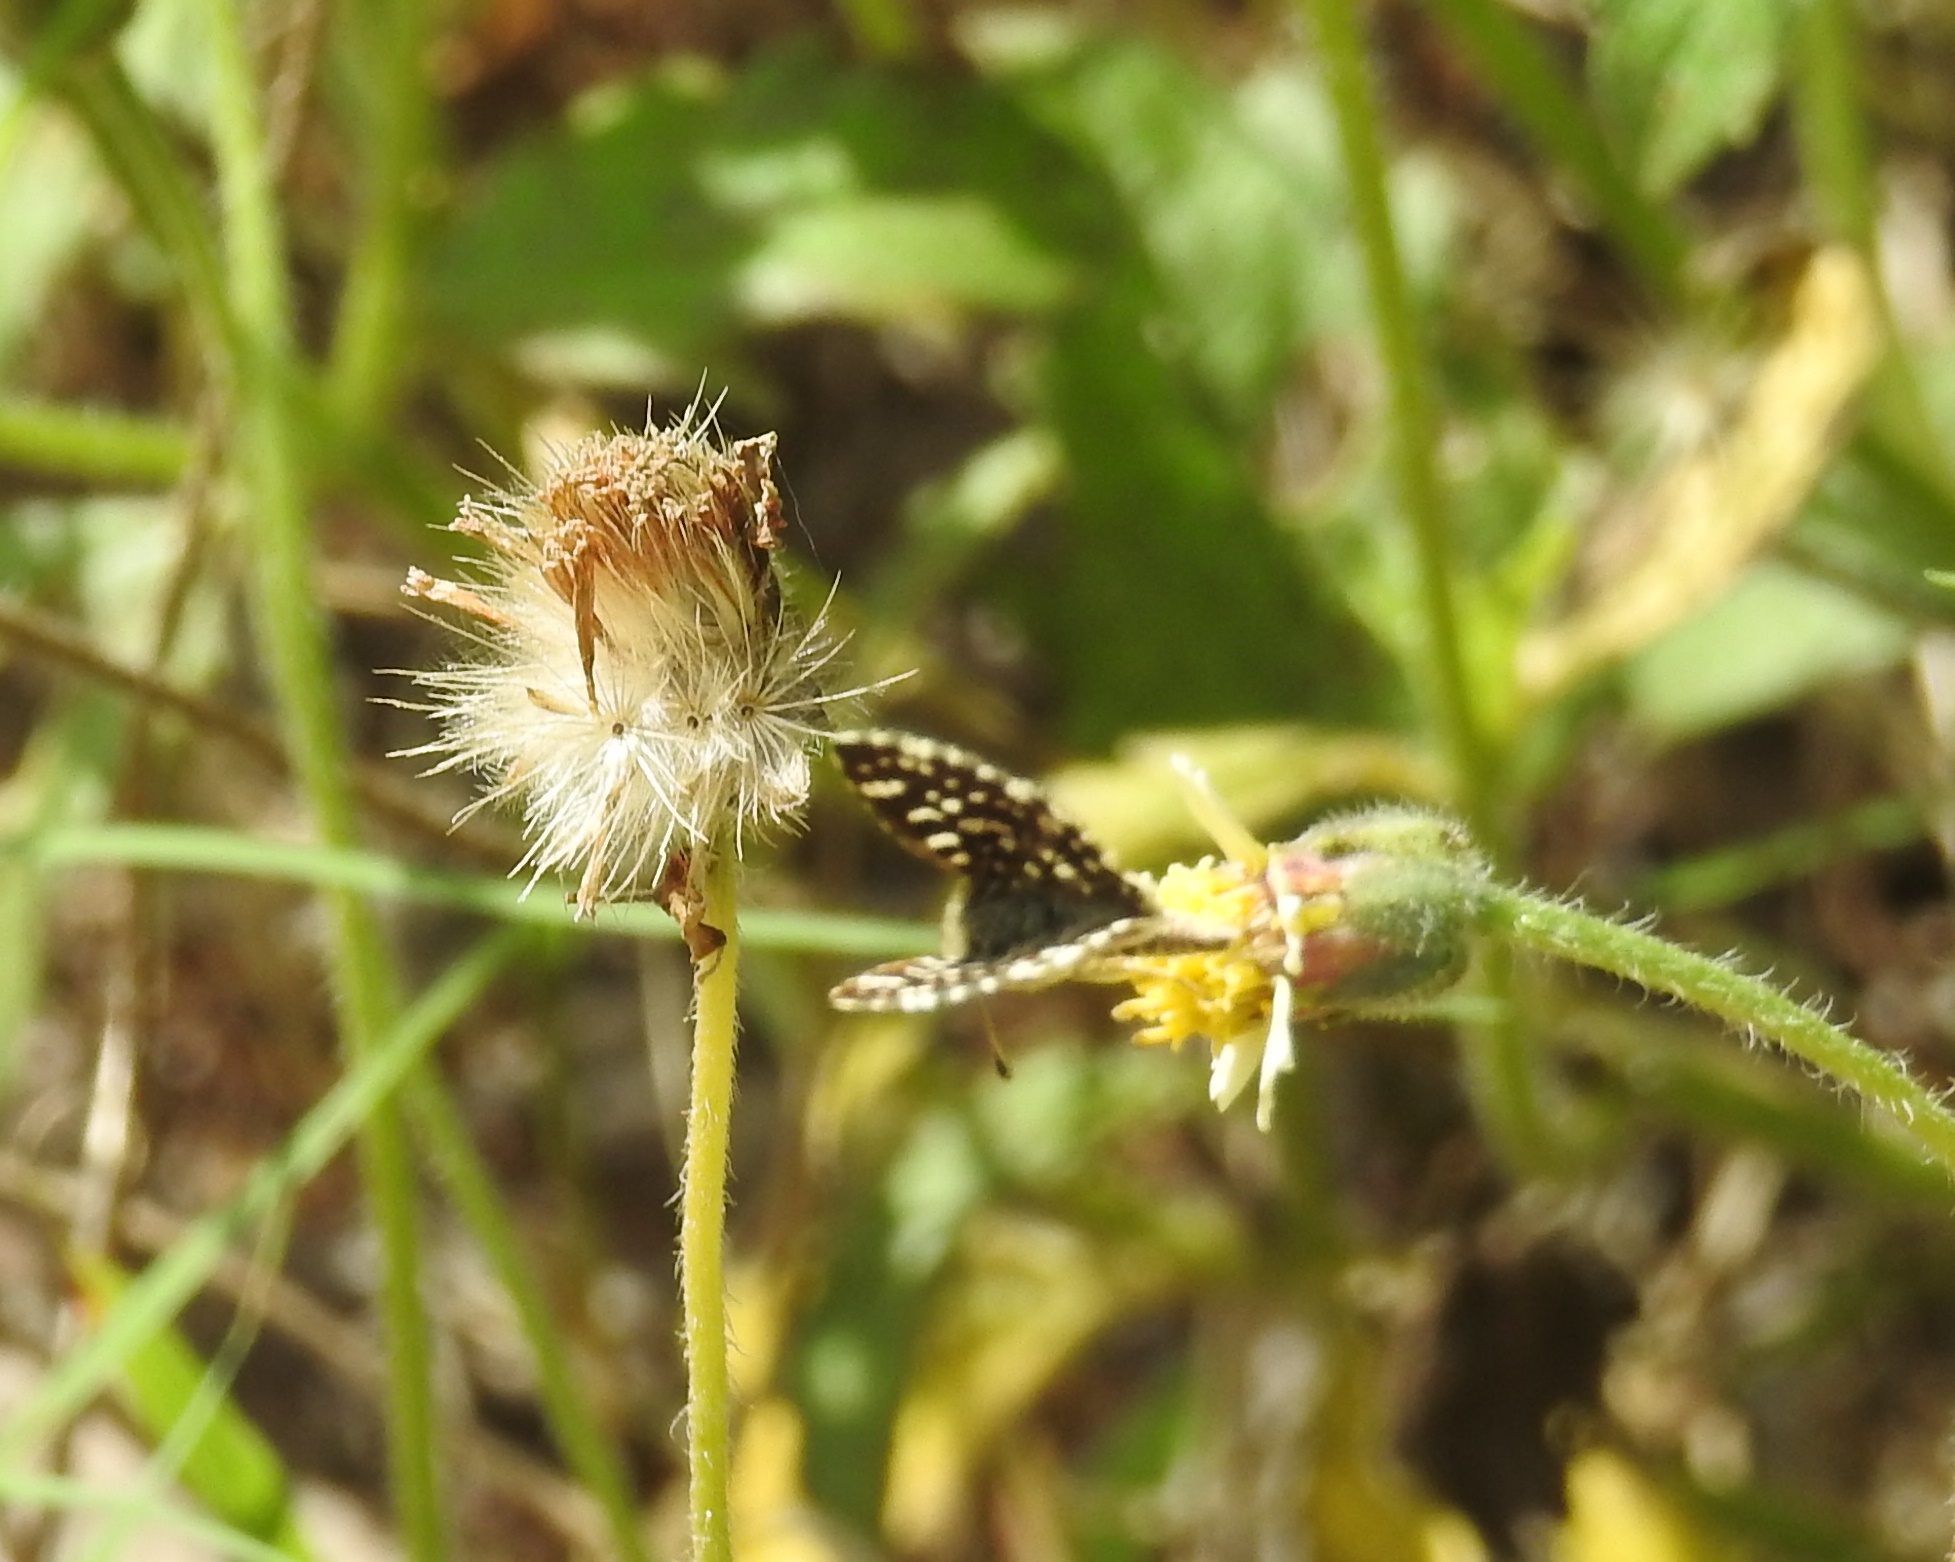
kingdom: Animalia
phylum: Arthropoda
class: Insecta
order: Lepidoptera
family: Hesperiidae
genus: Spialia
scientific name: Spialia galba
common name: Indian skipper
